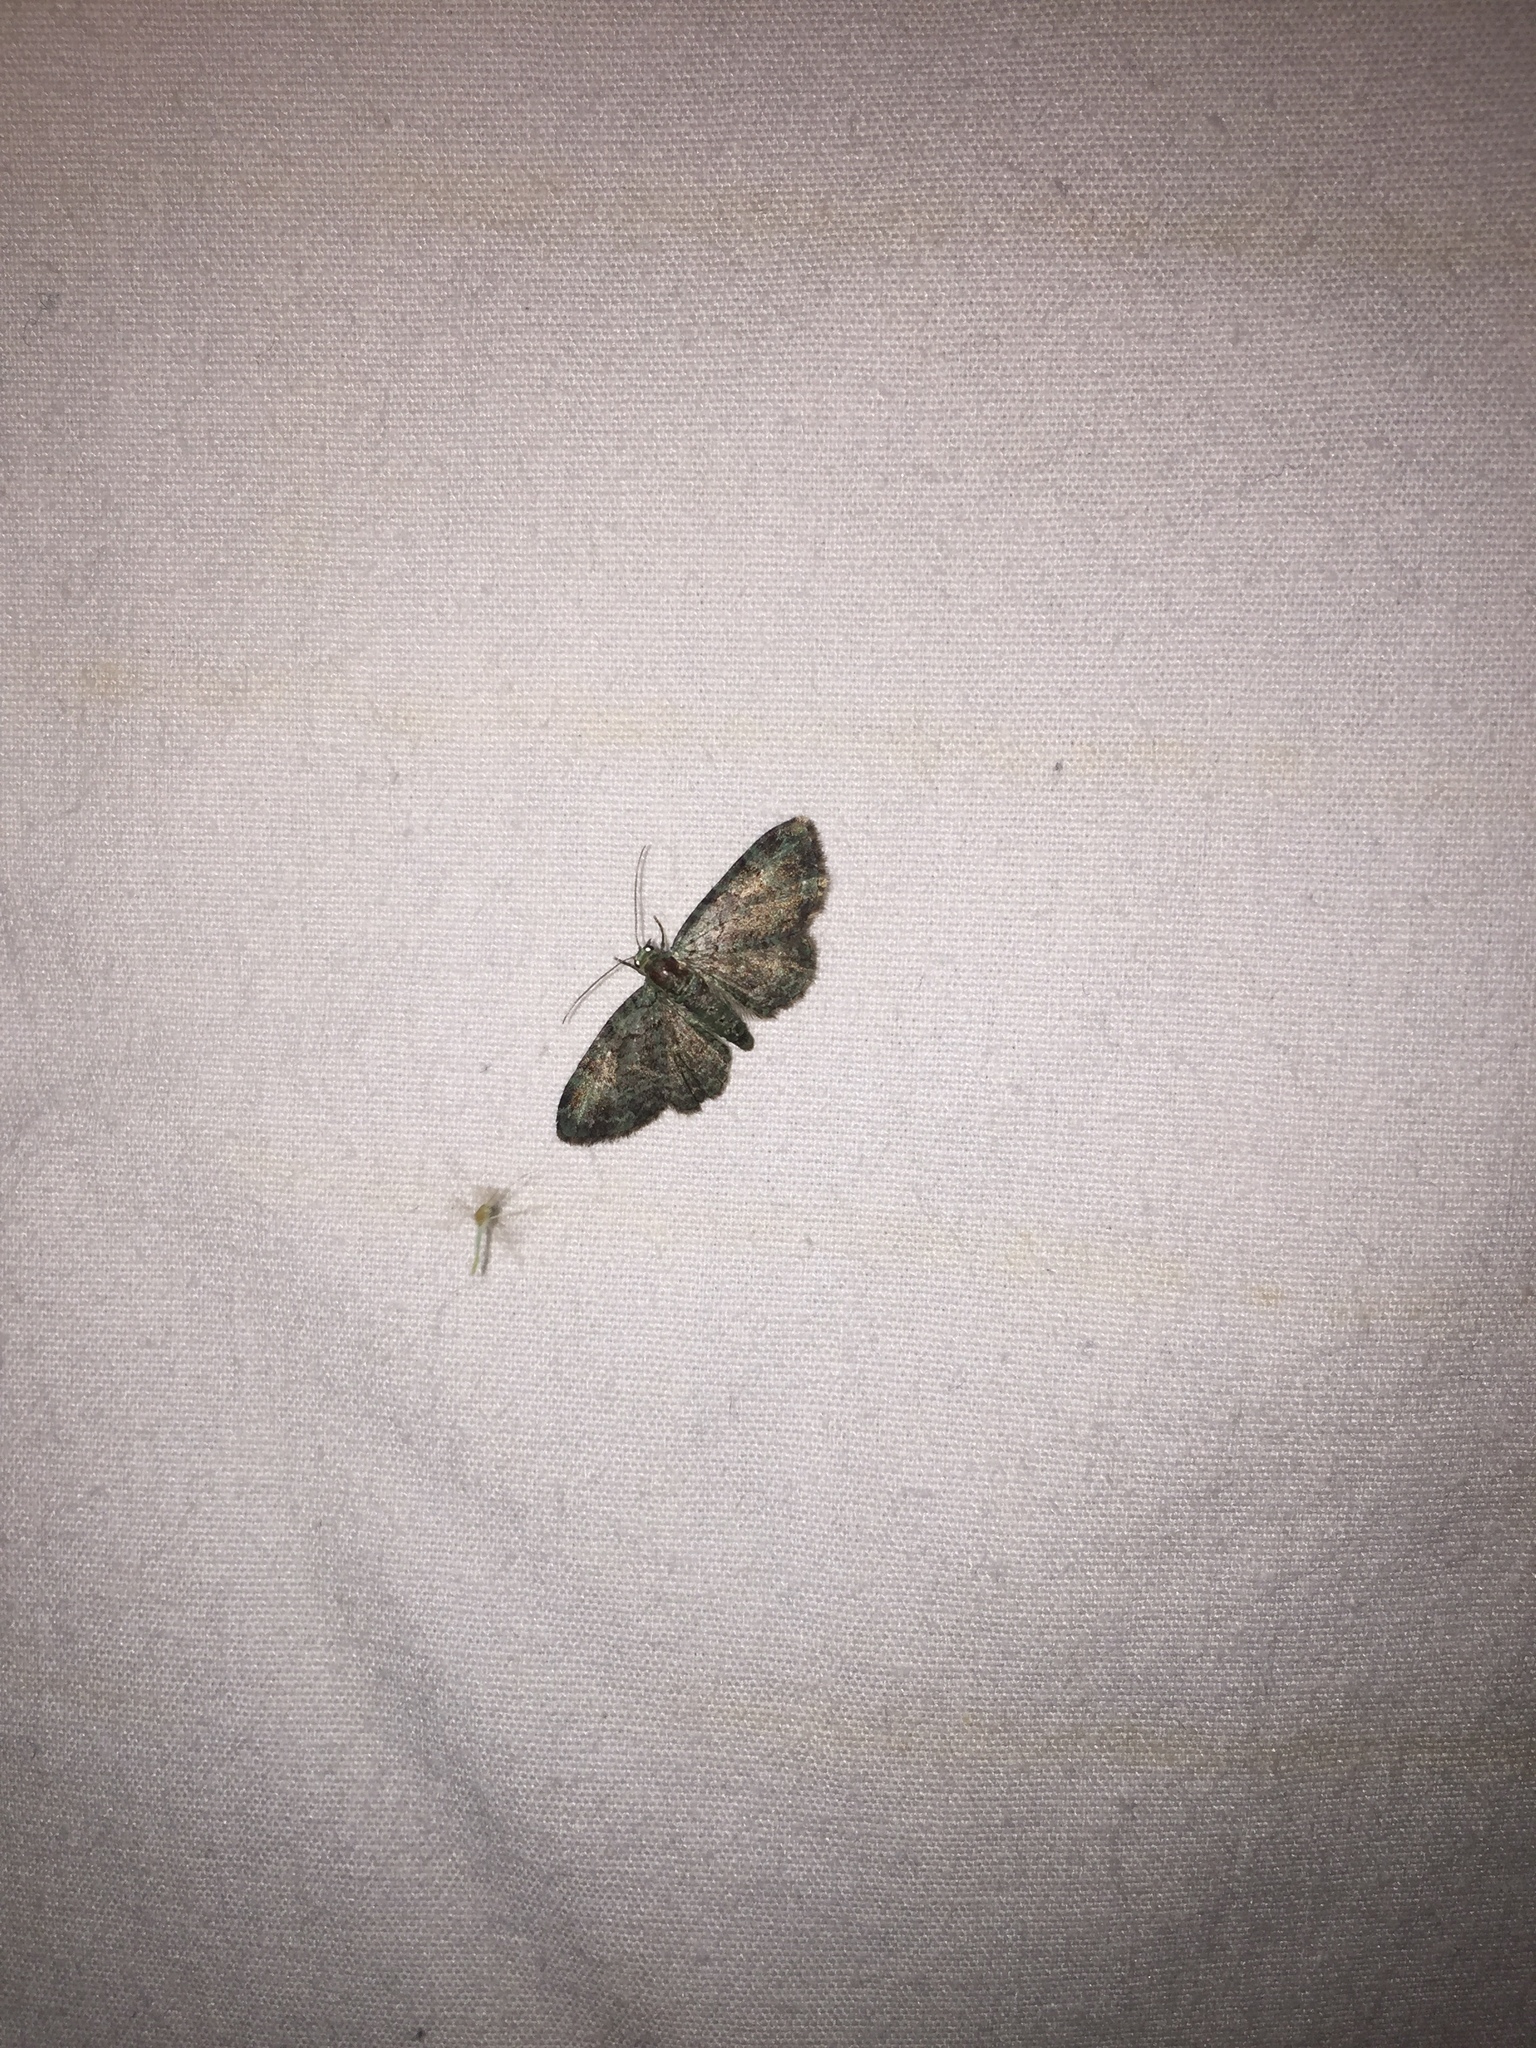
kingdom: Animalia
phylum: Arthropoda
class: Insecta
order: Lepidoptera
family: Geometridae
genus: Pasiphila
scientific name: Pasiphila rectangulata
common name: Green pug
